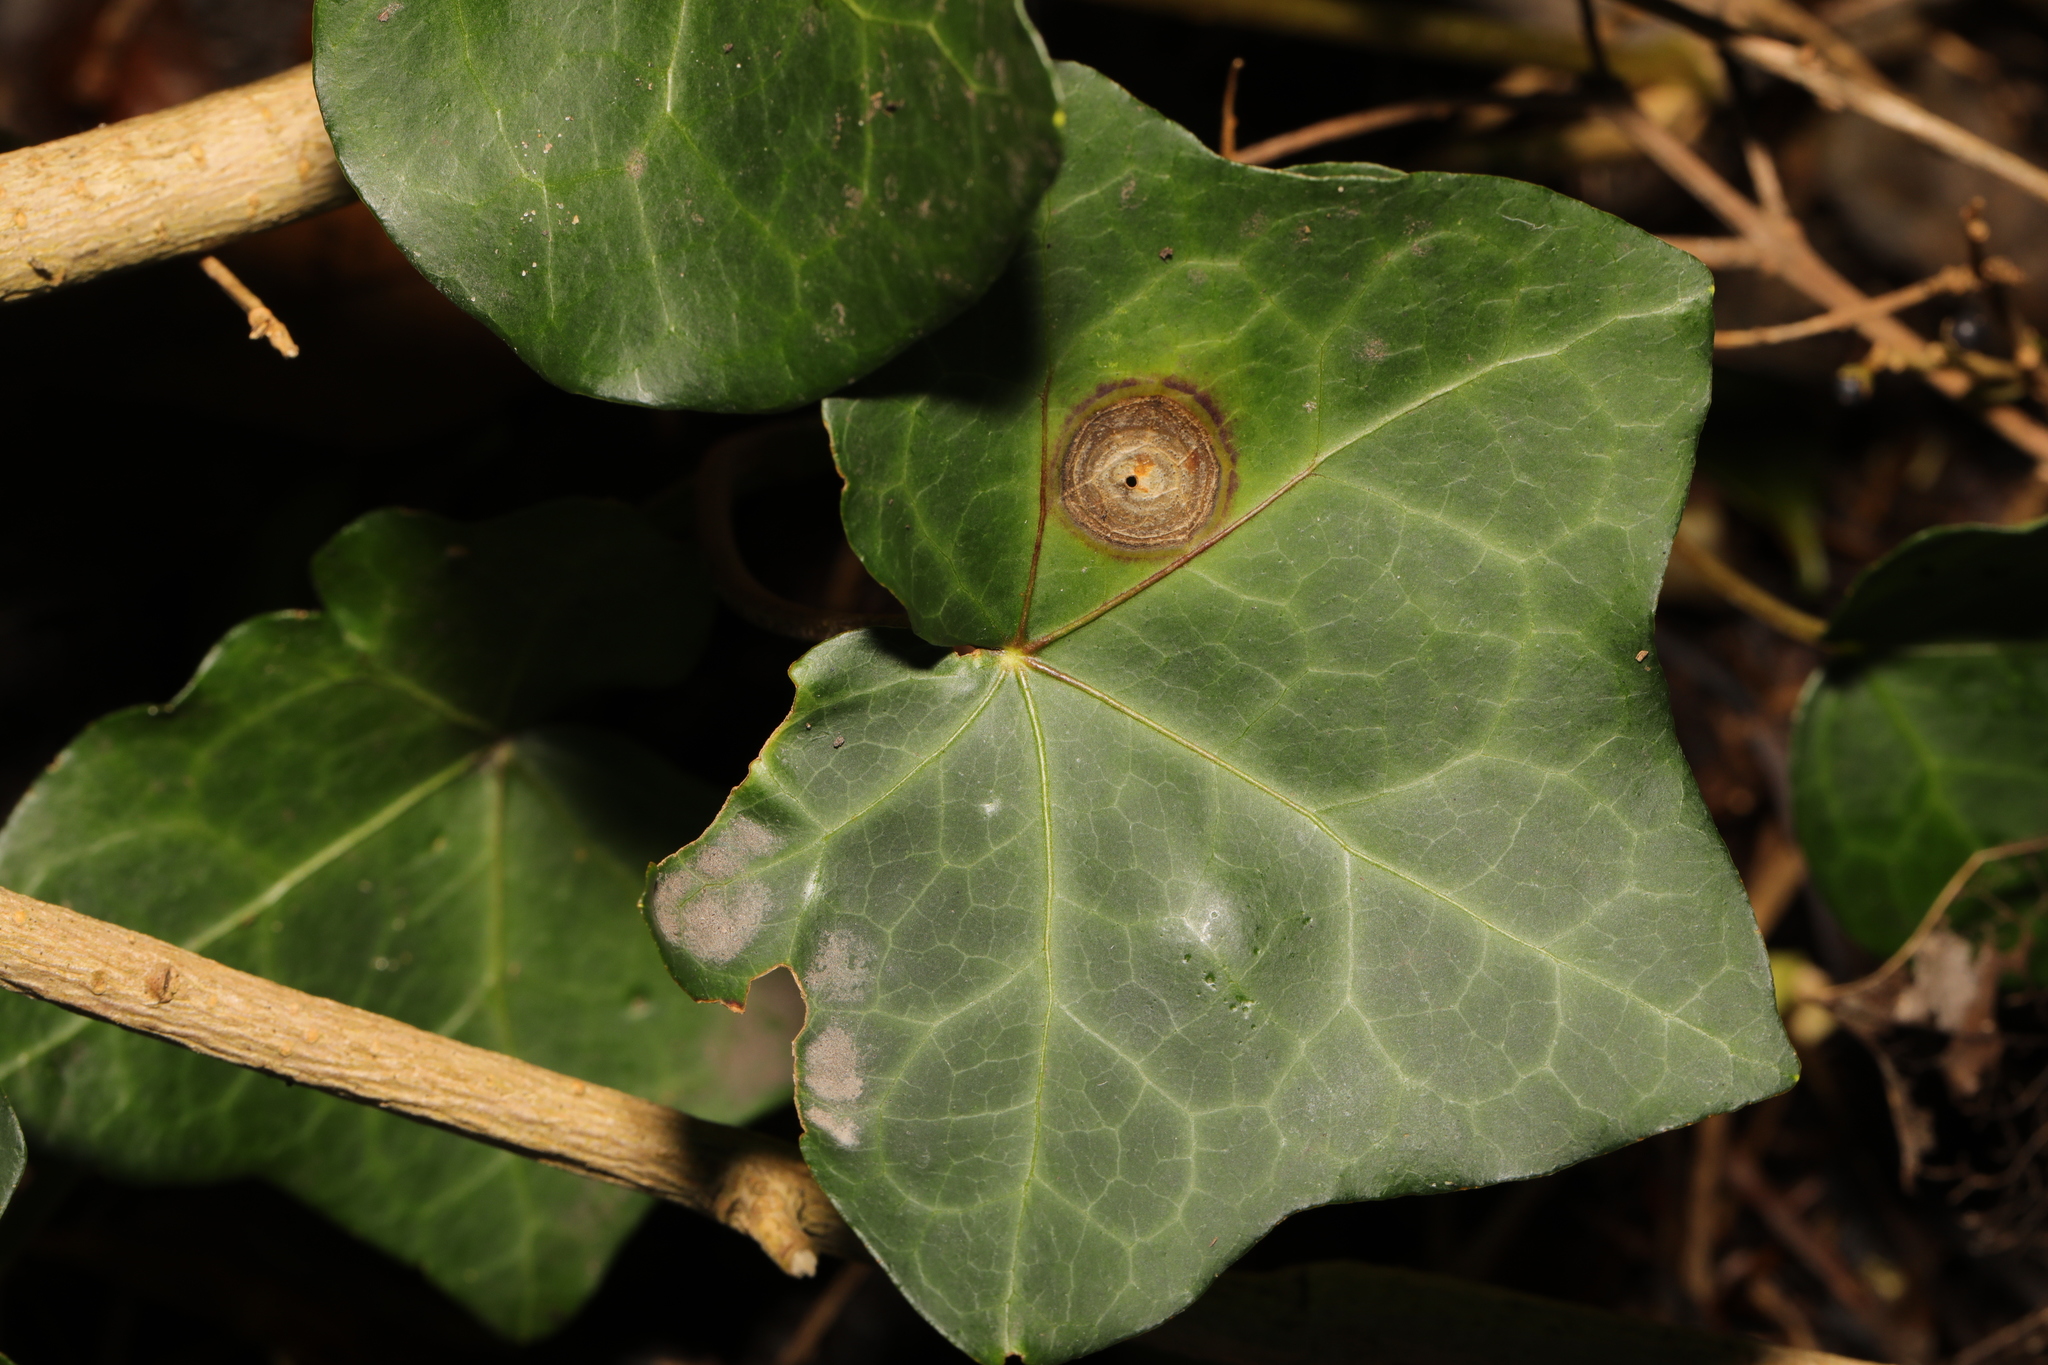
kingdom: Fungi
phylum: Ascomycota
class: Dothideomycetes
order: Pleosporales
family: Didymellaceae
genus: Boeremia
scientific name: Boeremia hedericola
